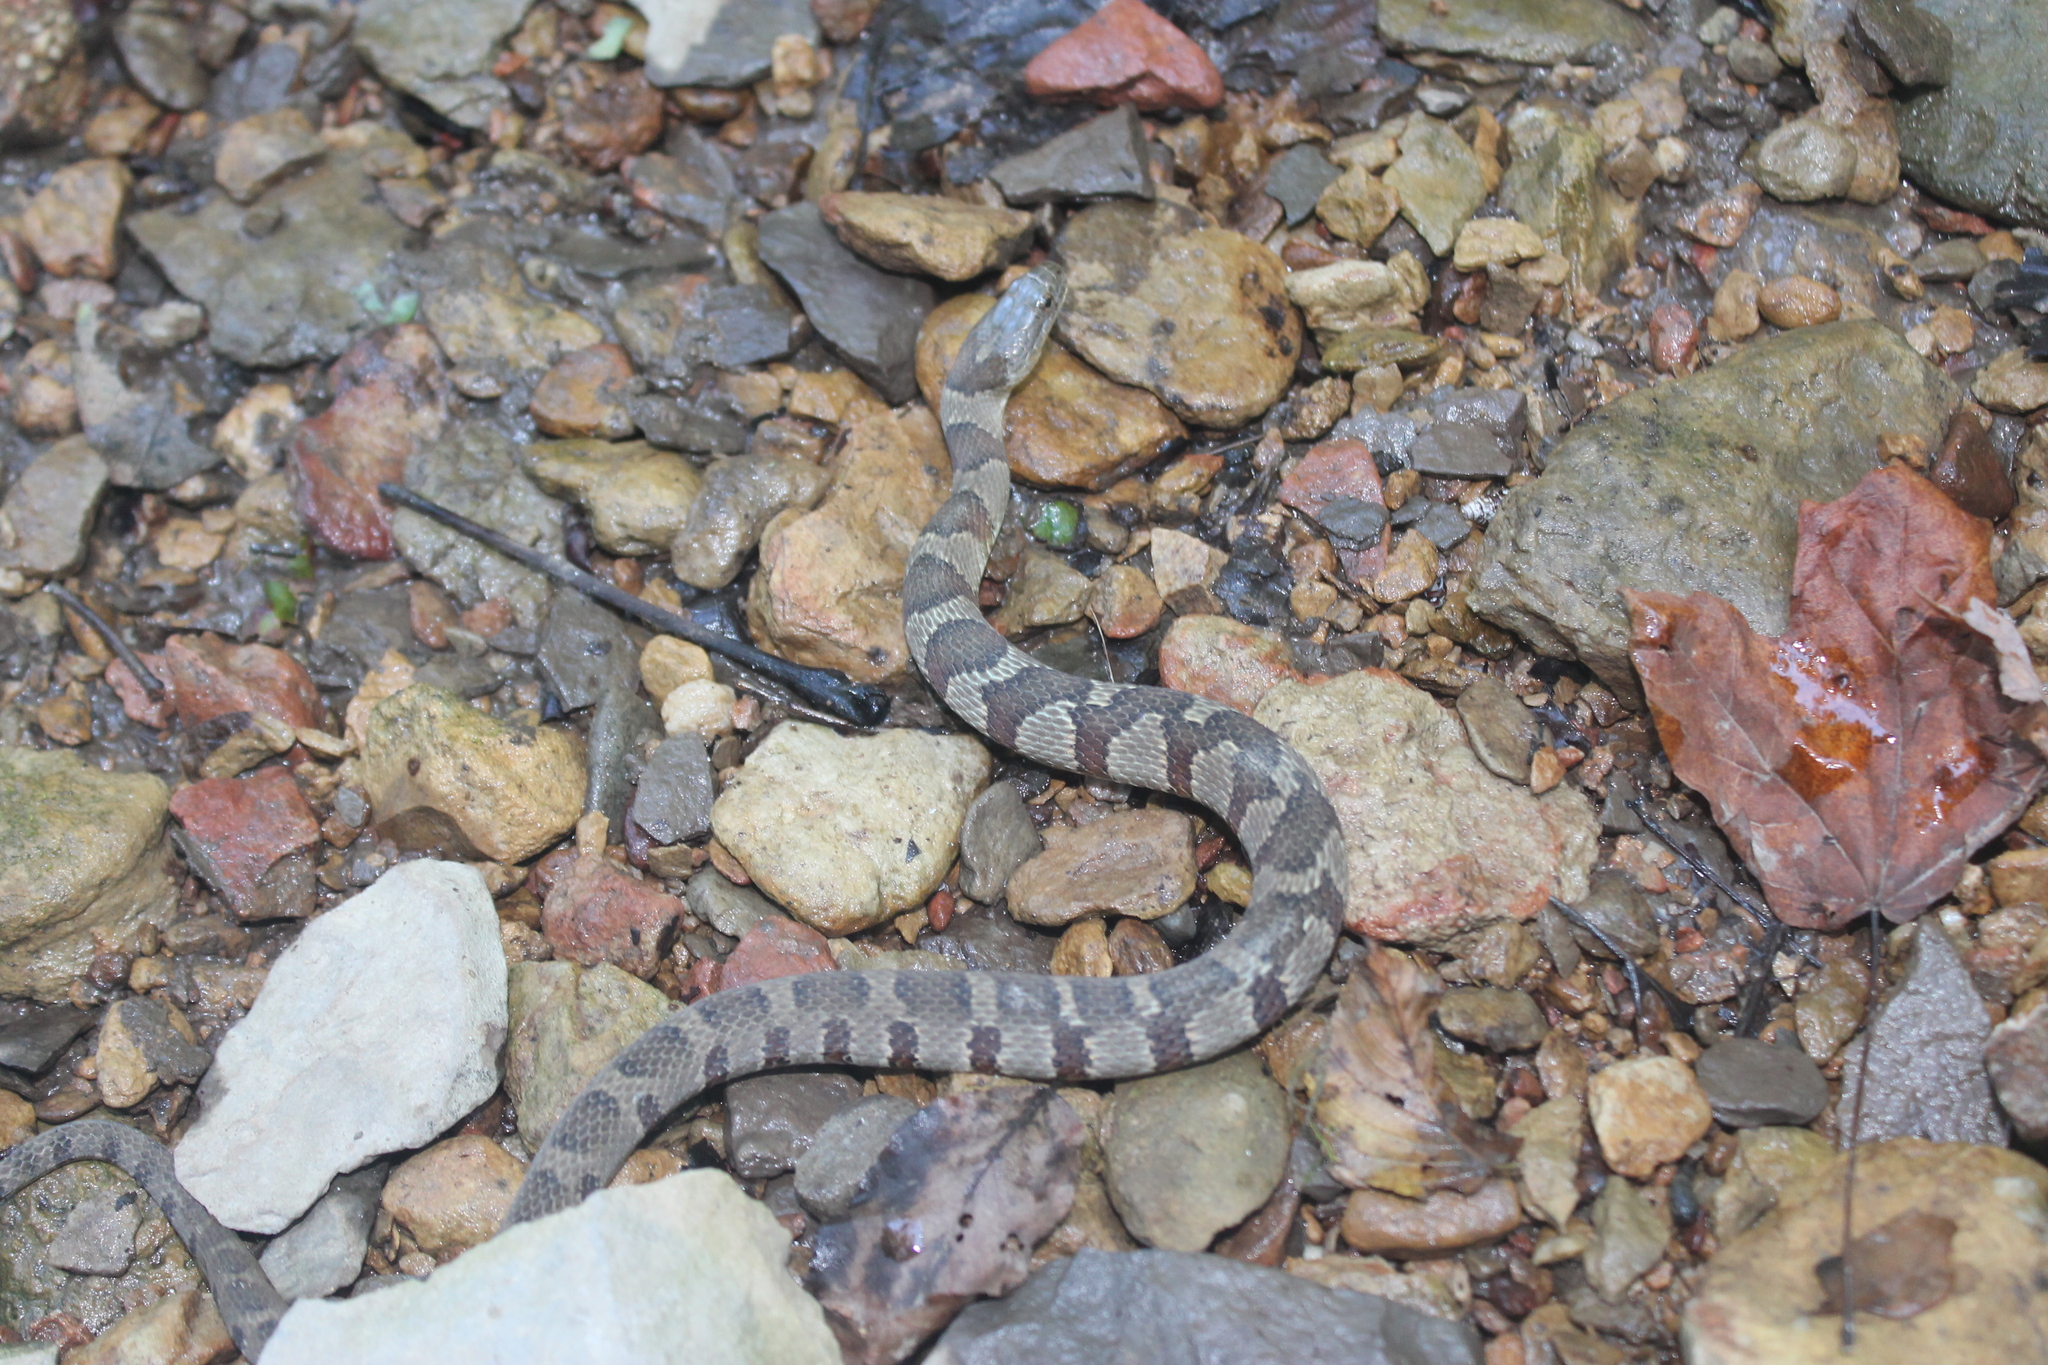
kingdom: Animalia
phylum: Chordata
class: Squamata
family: Colubridae
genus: Nerodia
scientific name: Nerodia sipedon
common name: Northern water snake
